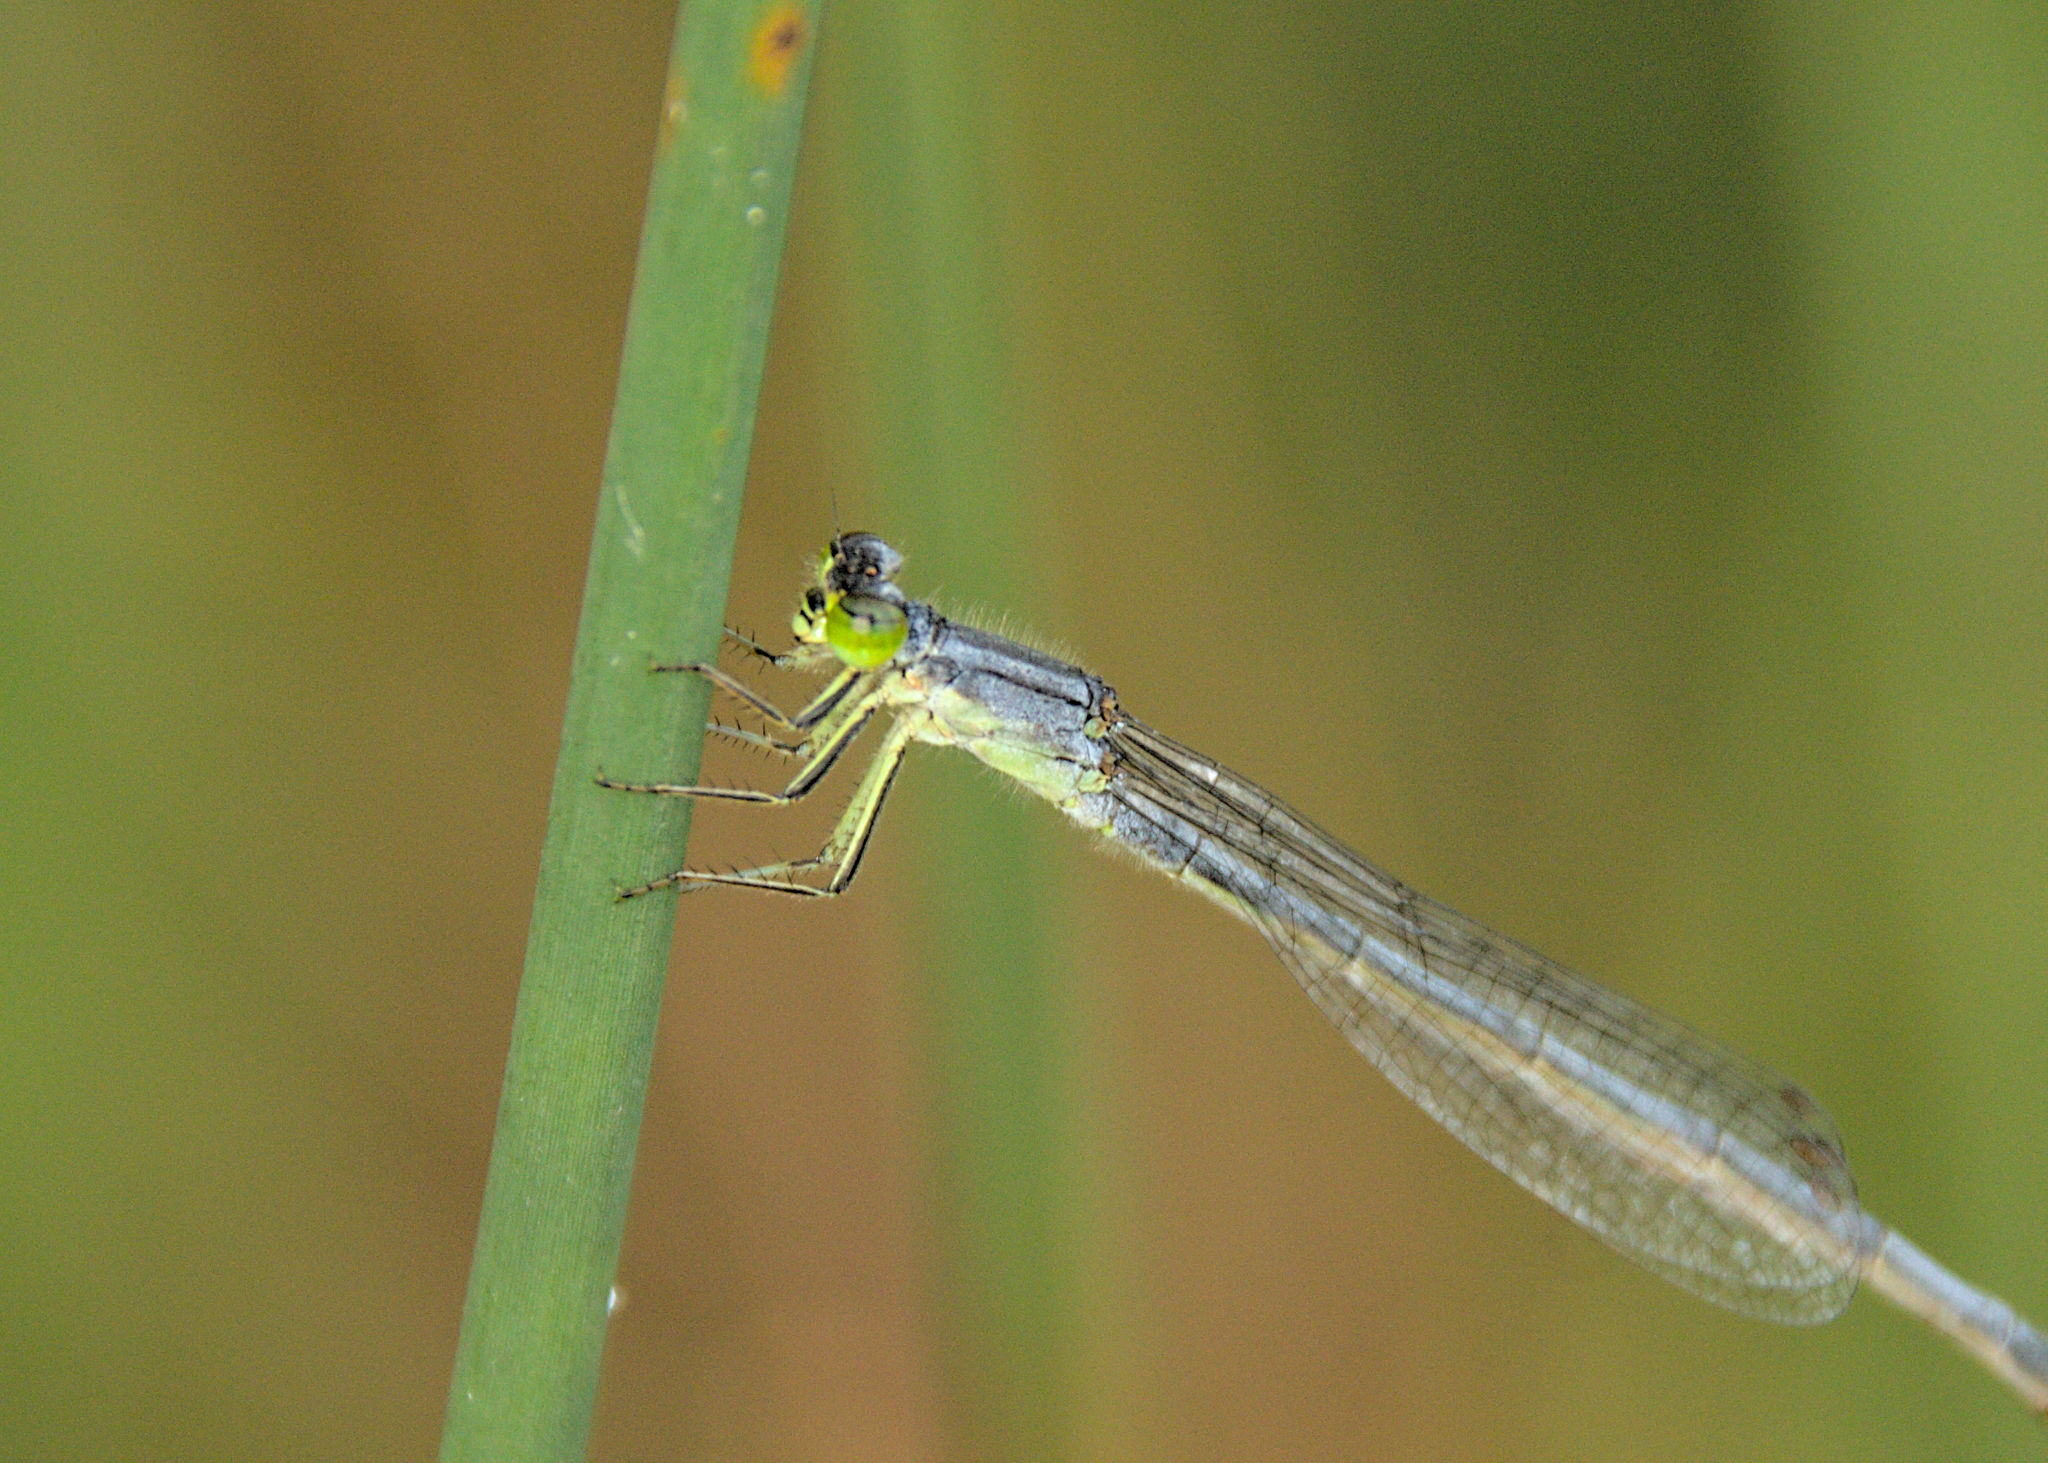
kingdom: Animalia
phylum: Arthropoda
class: Insecta
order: Odonata
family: Coenagrionidae
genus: Ischnura
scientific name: Ischnura verticalis
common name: Eastern forktail
